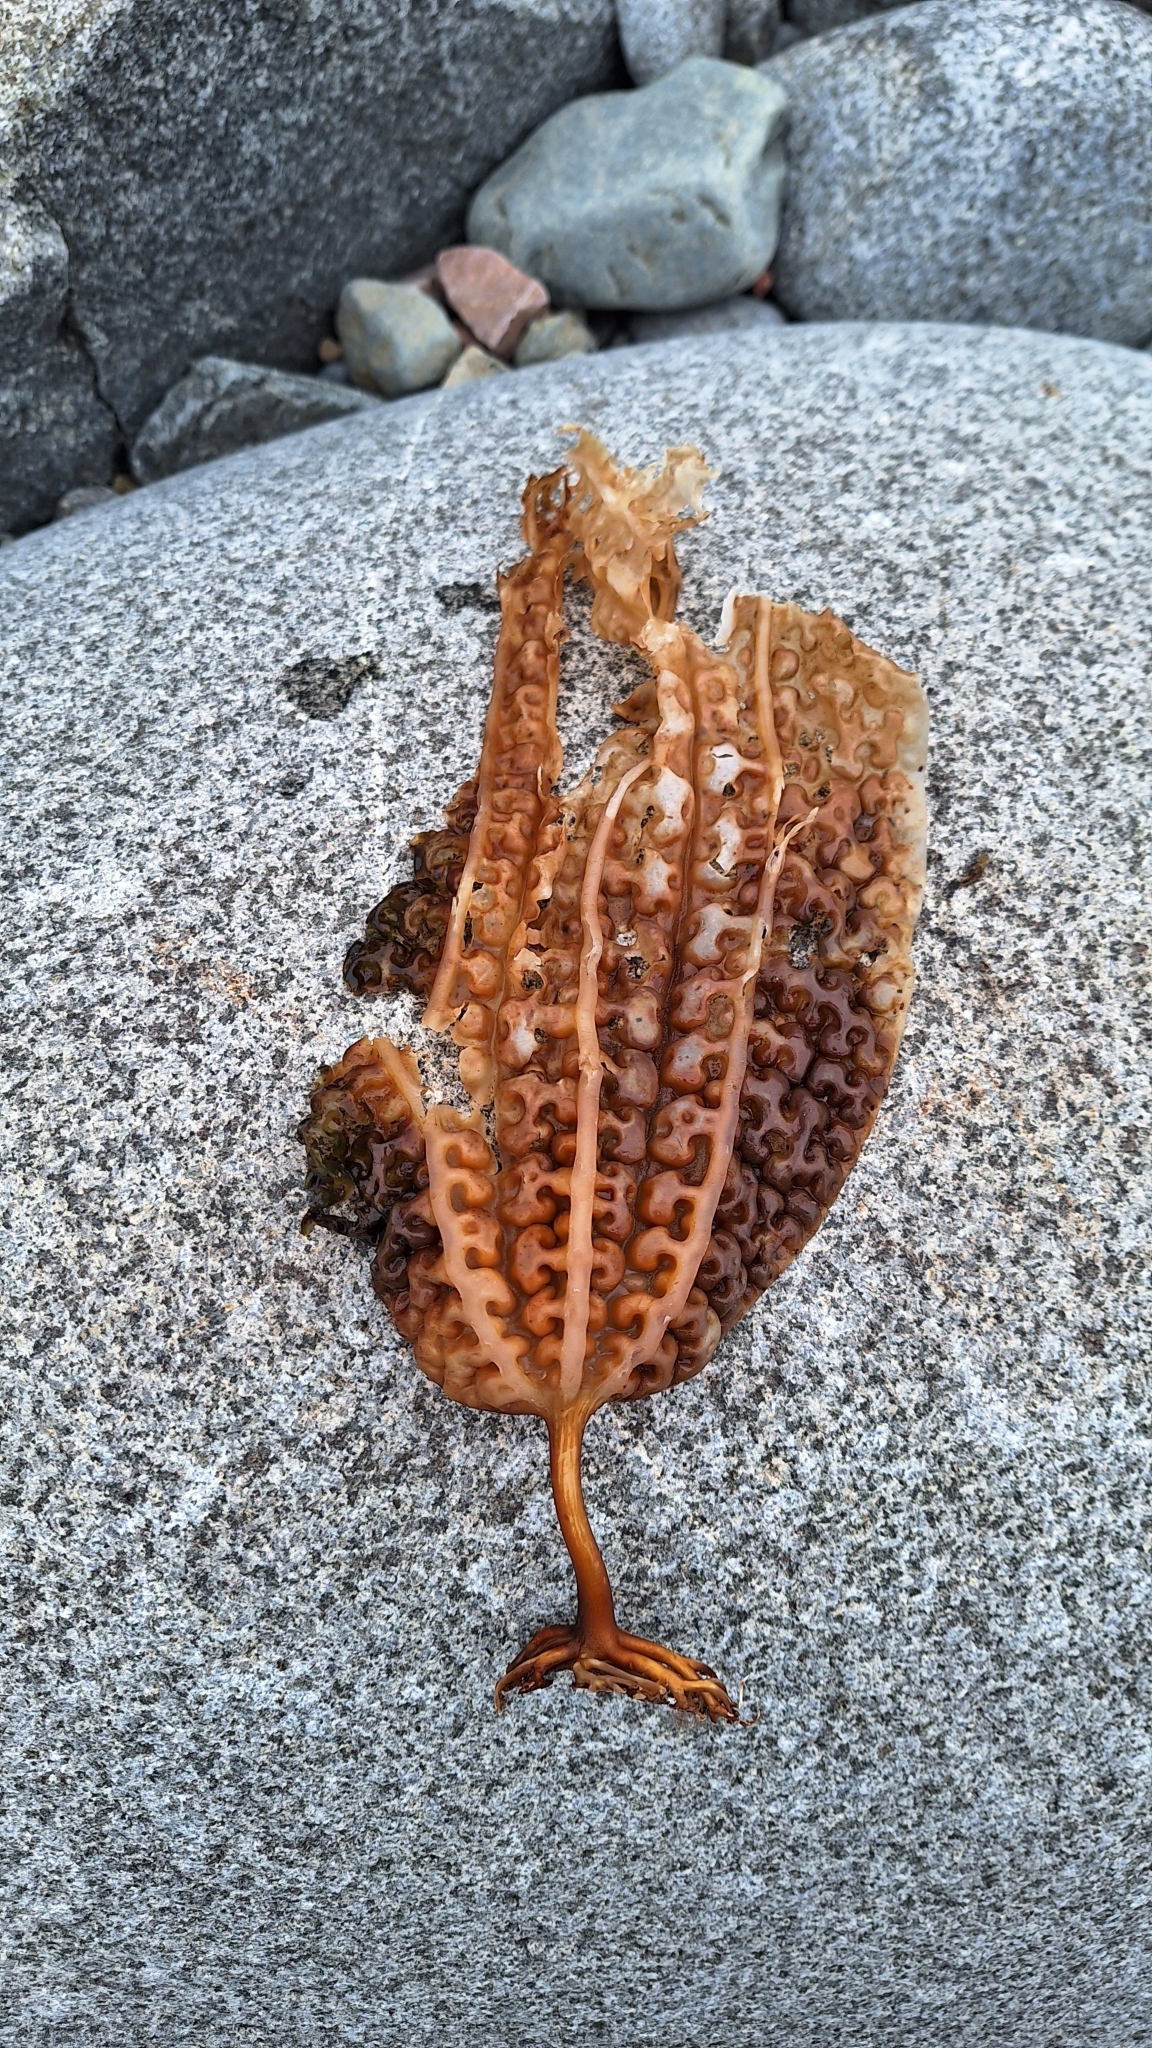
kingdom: Chromista
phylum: Ochrophyta
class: Phaeophyceae
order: Laminariales
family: Costariaceae
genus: Costaria
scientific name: Costaria costata
